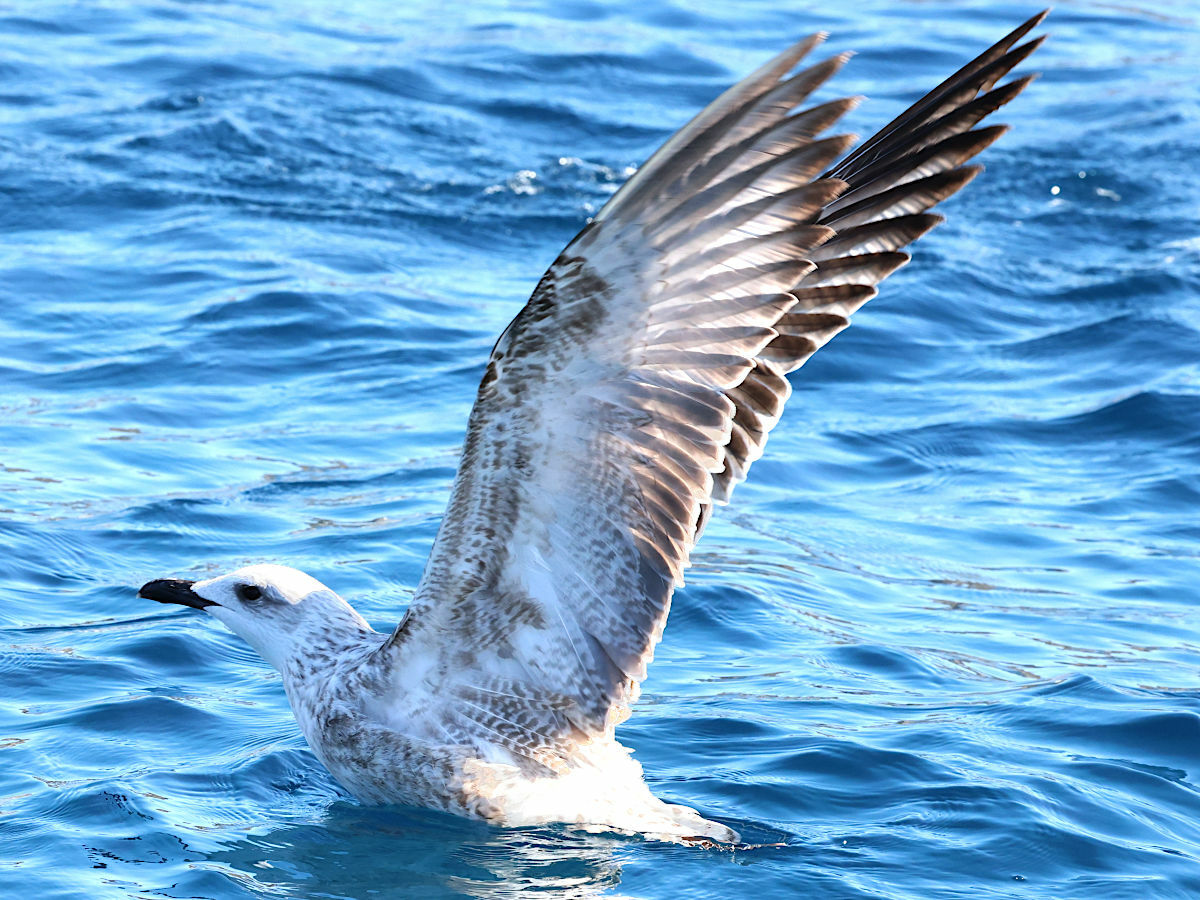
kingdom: Animalia
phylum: Chordata
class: Aves
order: Charadriiformes
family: Laridae
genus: Larus
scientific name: Larus michahellis
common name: Yellow-legged gull
